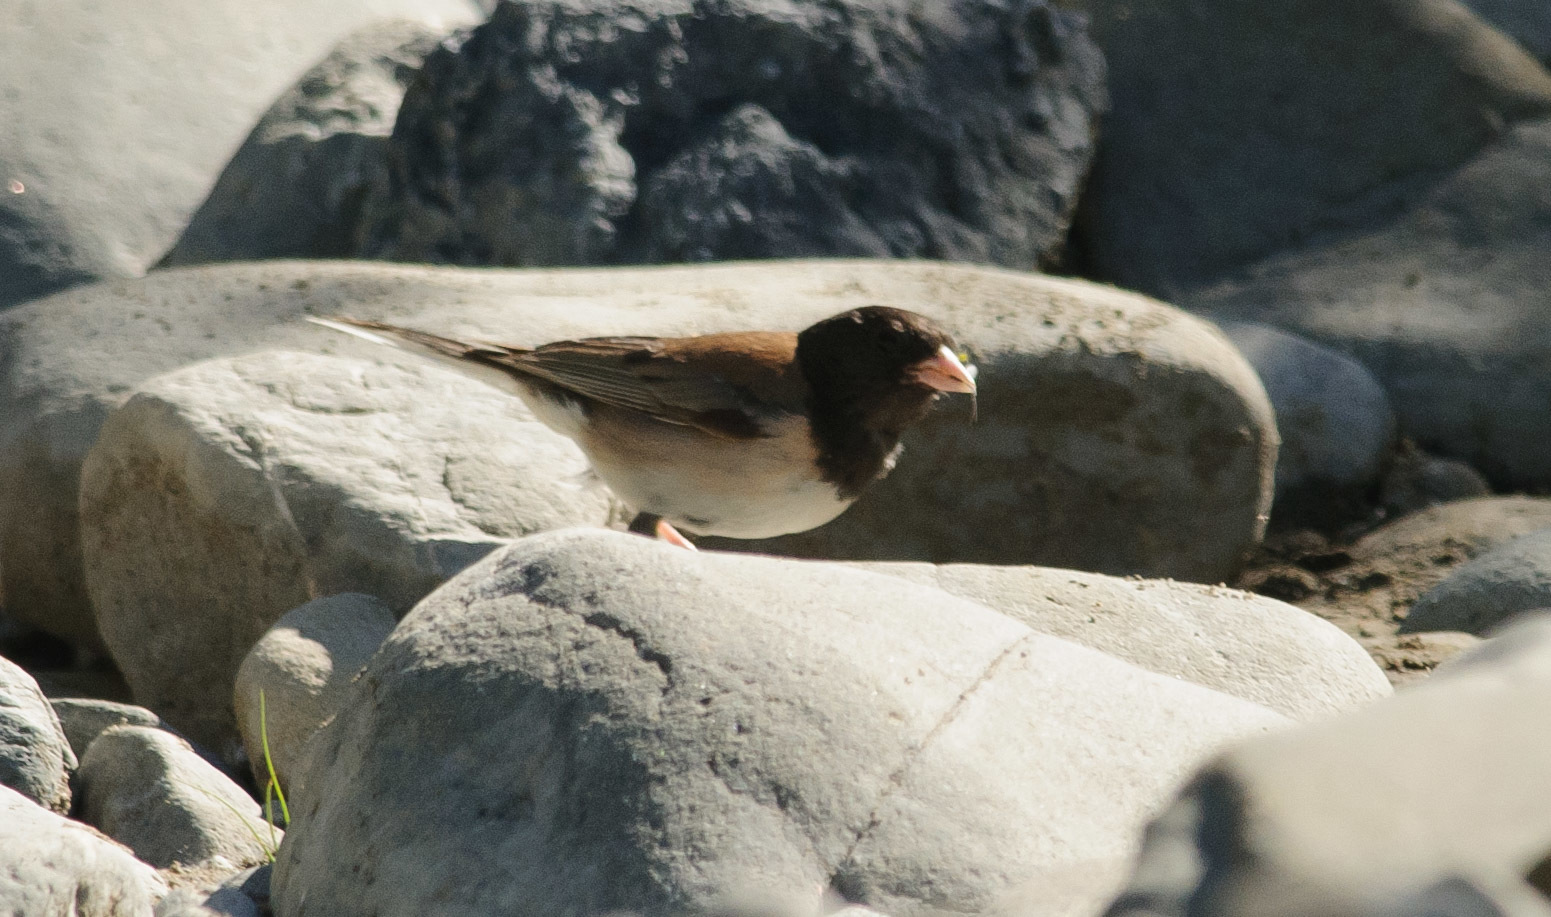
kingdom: Animalia
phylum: Chordata
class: Aves
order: Passeriformes
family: Passerellidae
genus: Junco
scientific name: Junco hyemalis
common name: Dark-eyed junco
